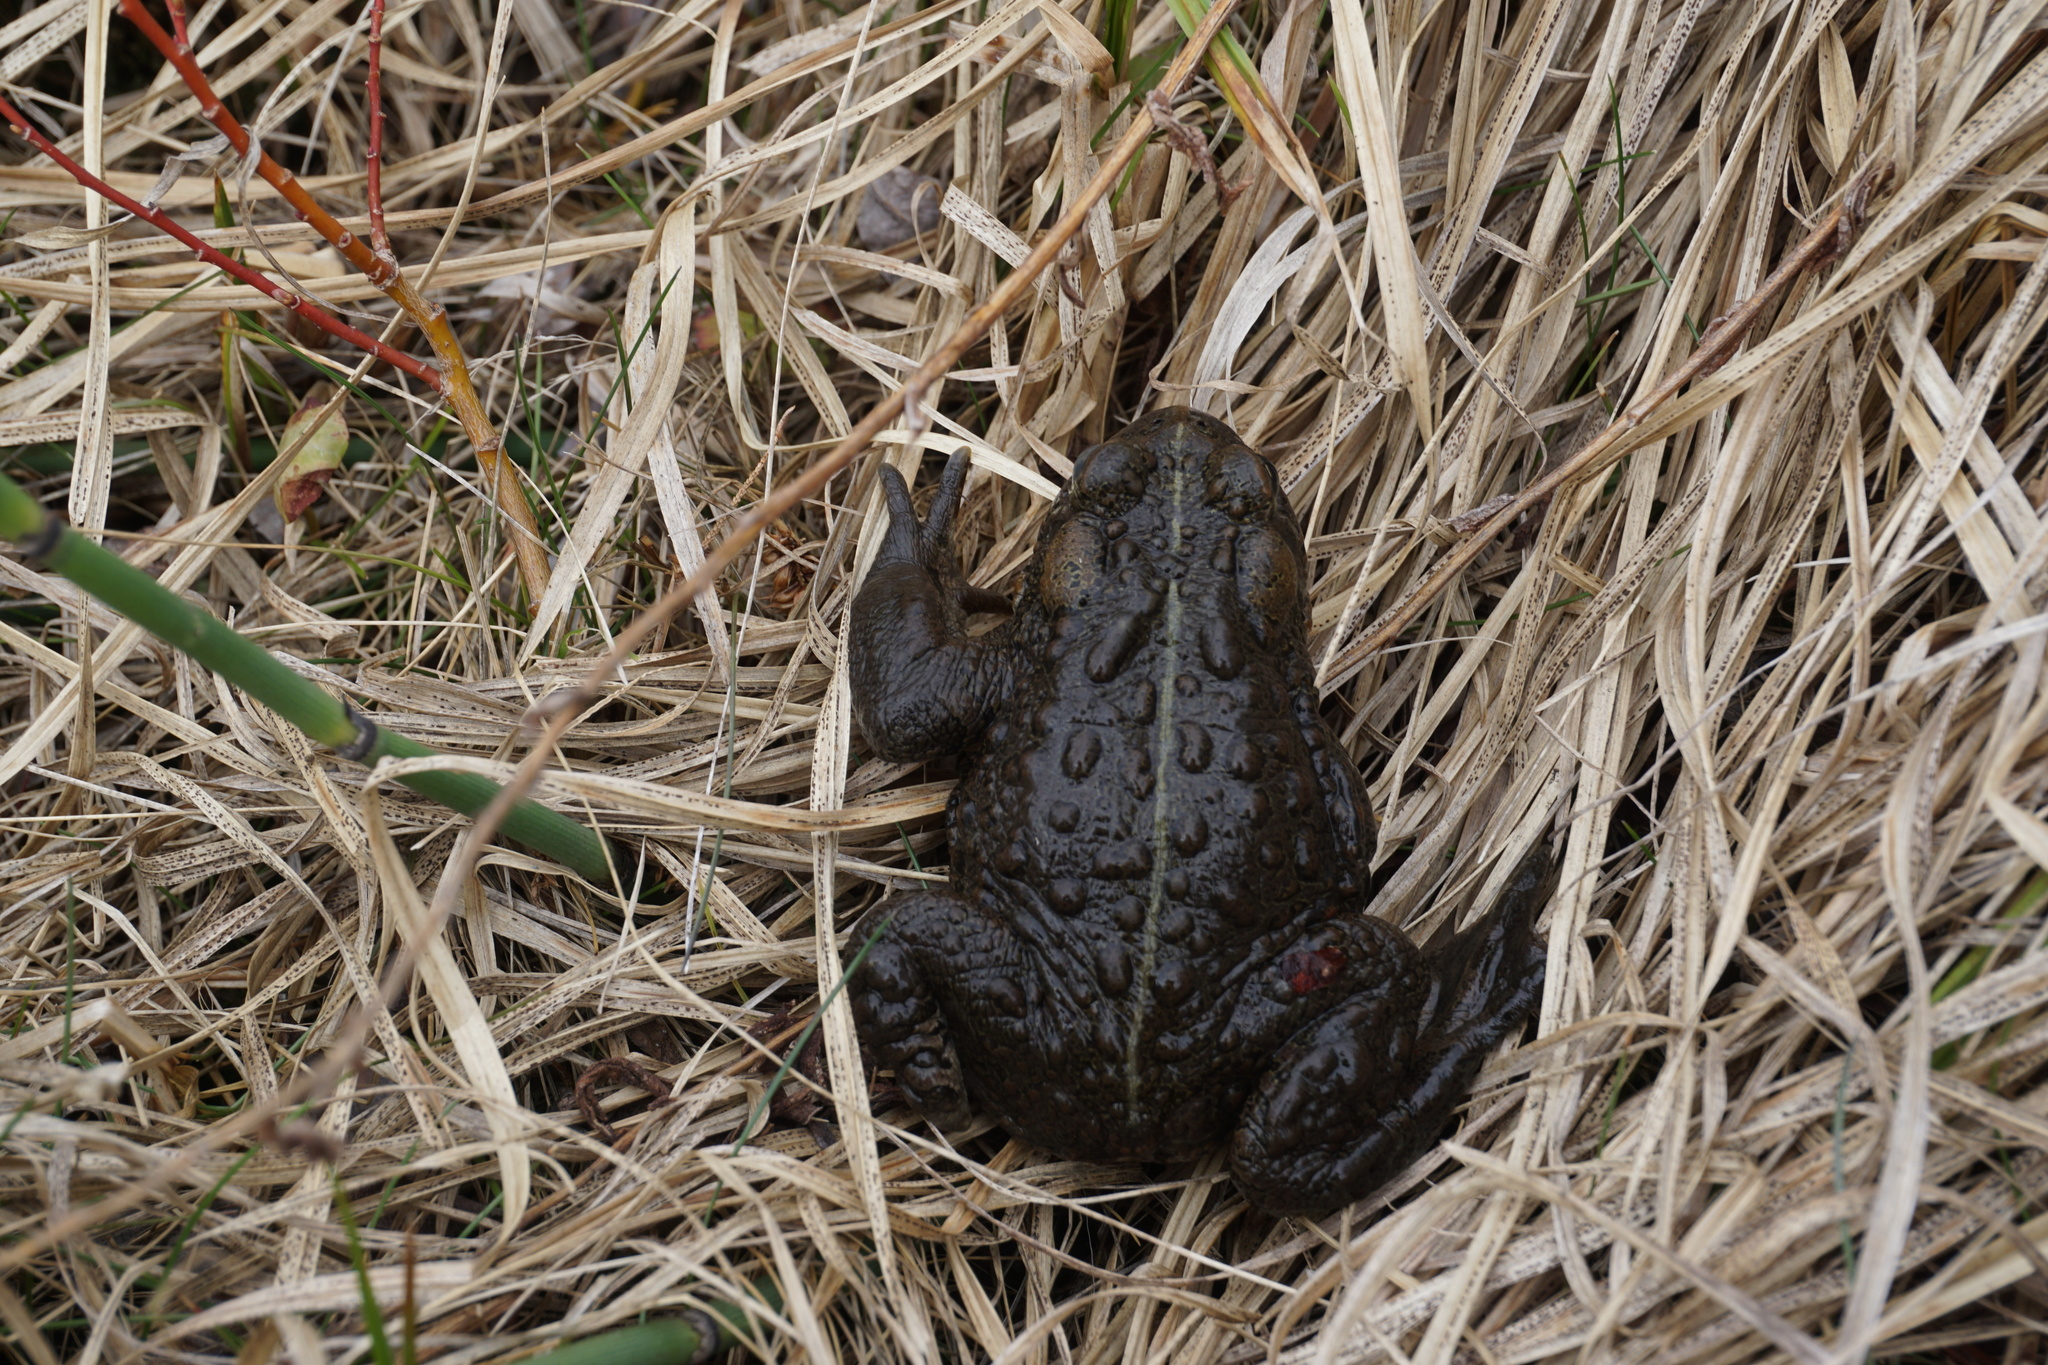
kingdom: Animalia
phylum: Chordata
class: Amphibia
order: Anura
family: Bufonidae
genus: Anaxyrus
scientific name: Anaxyrus boreas
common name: Western toad
